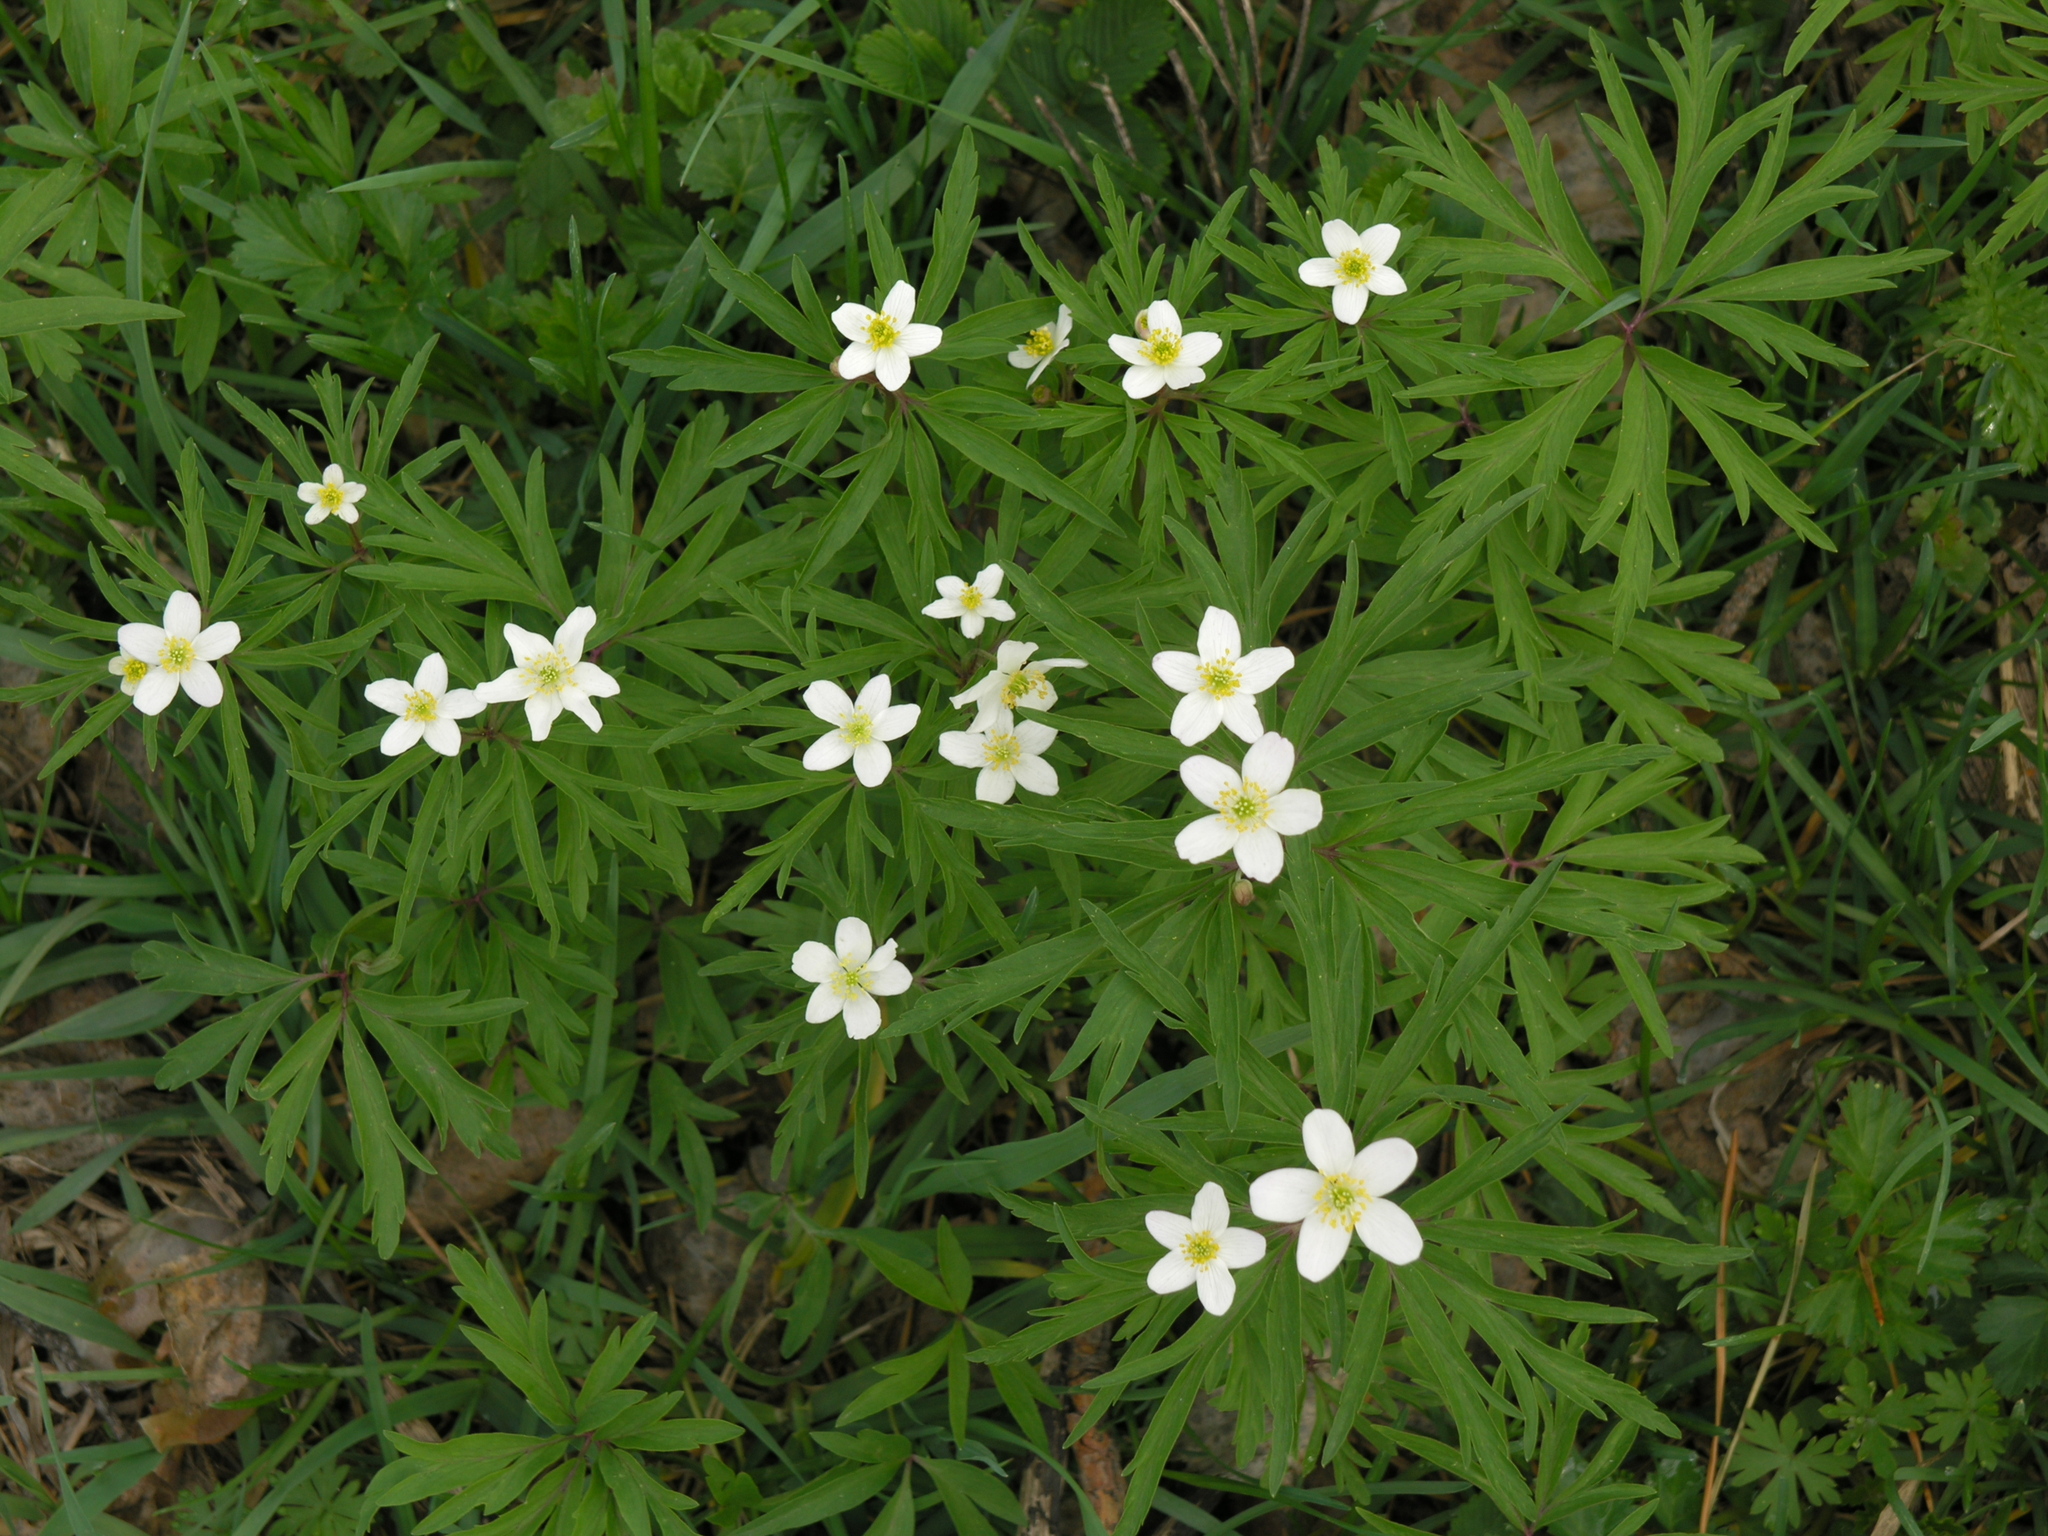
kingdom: Plantae
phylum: Tracheophyta
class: Magnoliopsida
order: Ranunculales
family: Ranunculaceae
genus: Anemone
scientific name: Anemone caerulea
